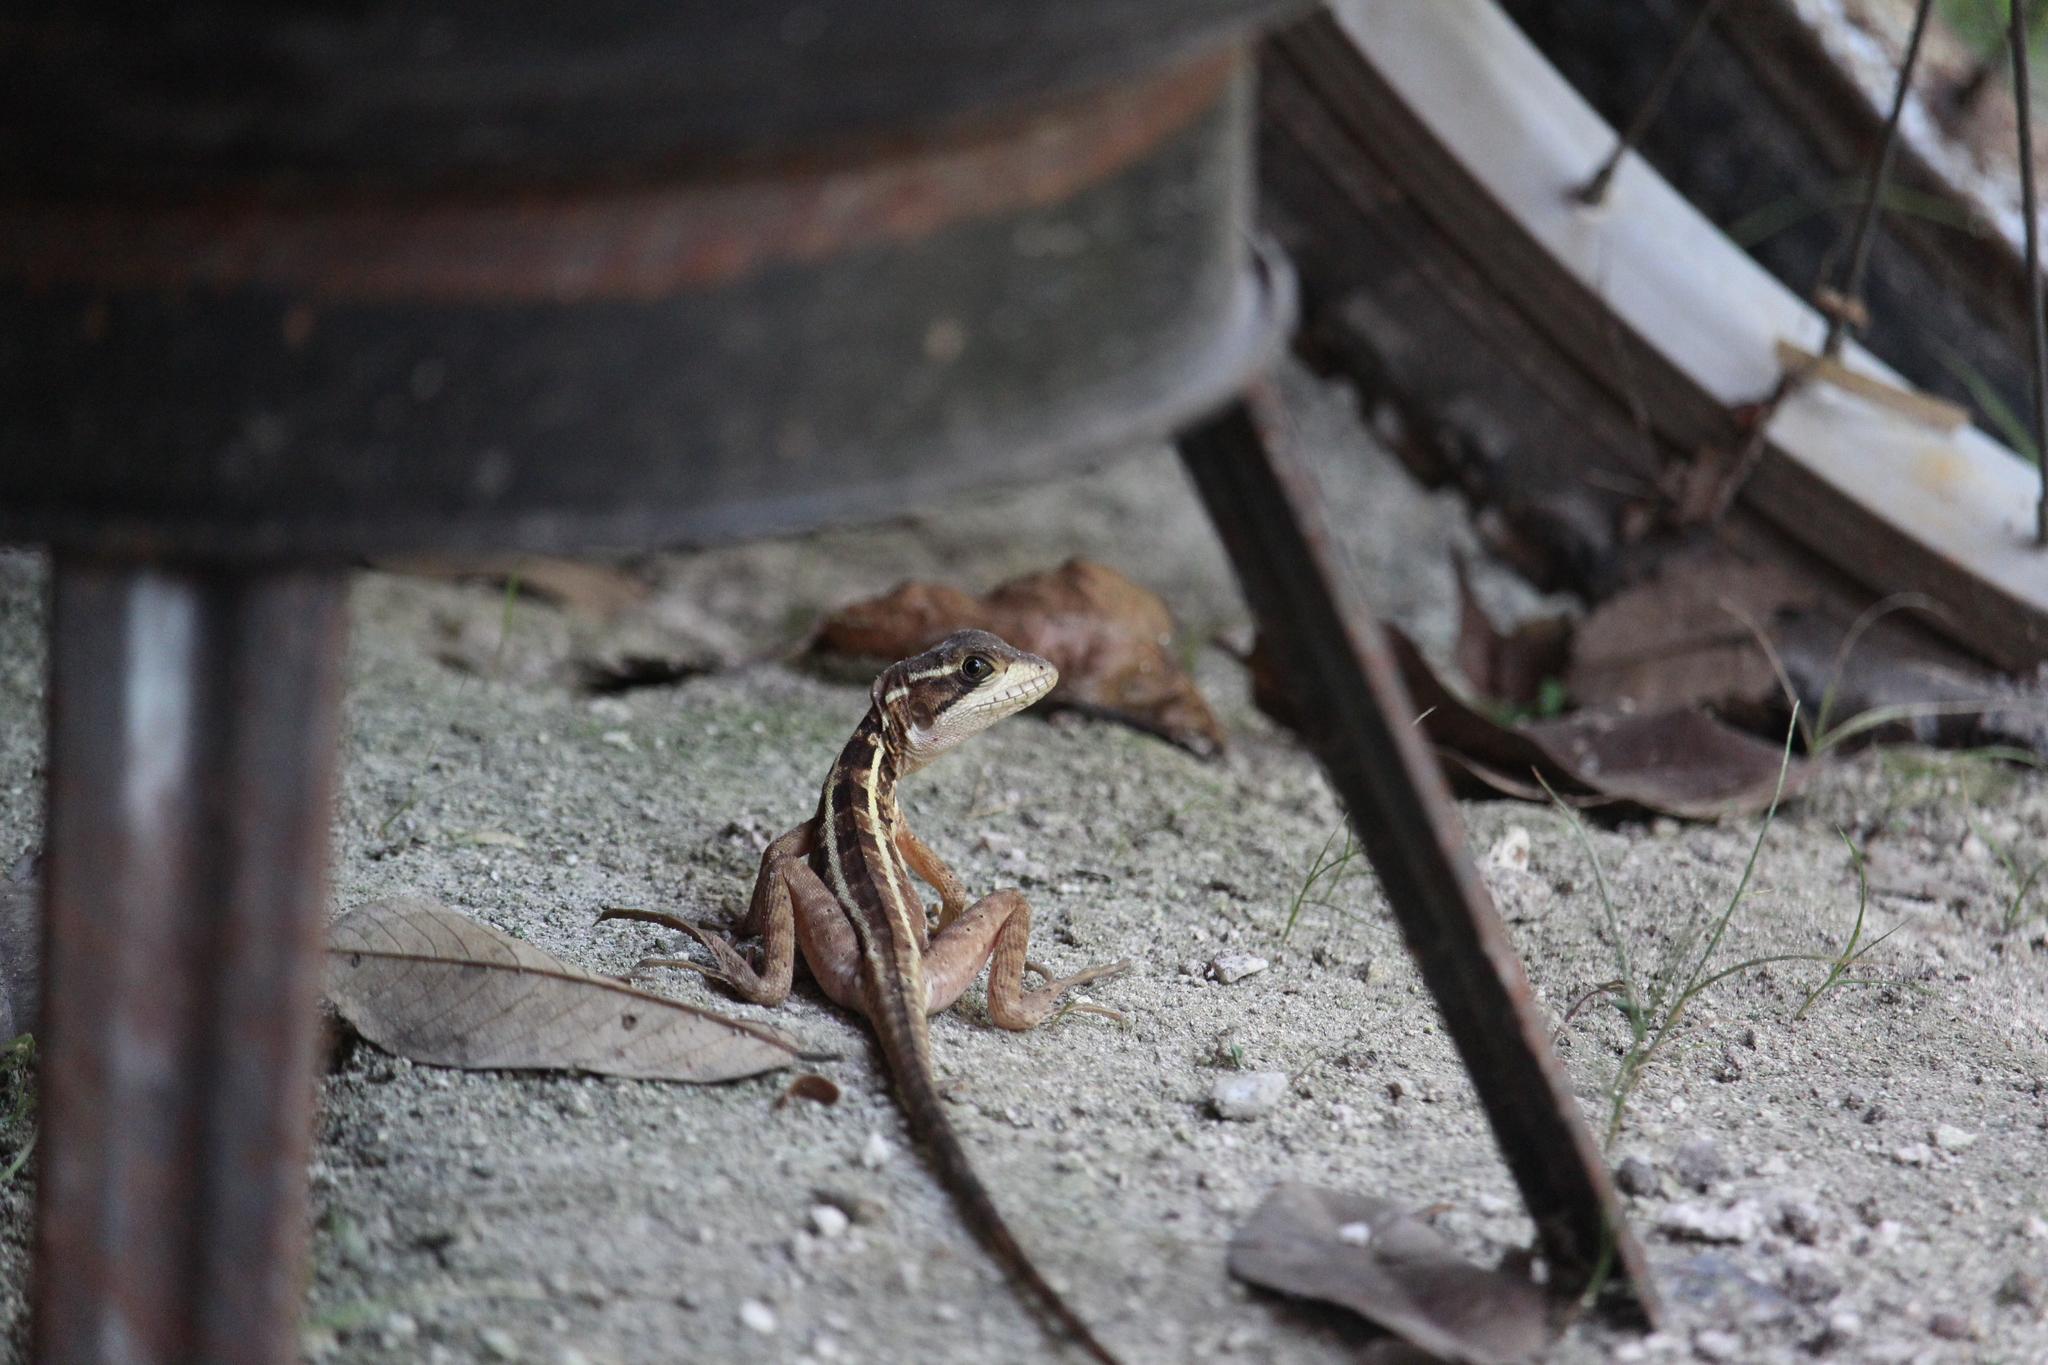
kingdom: Animalia
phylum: Chordata
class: Squamata
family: Corytophanidae
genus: Basiliscus
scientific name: Basiliscus vittatus
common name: Brown basilisk
